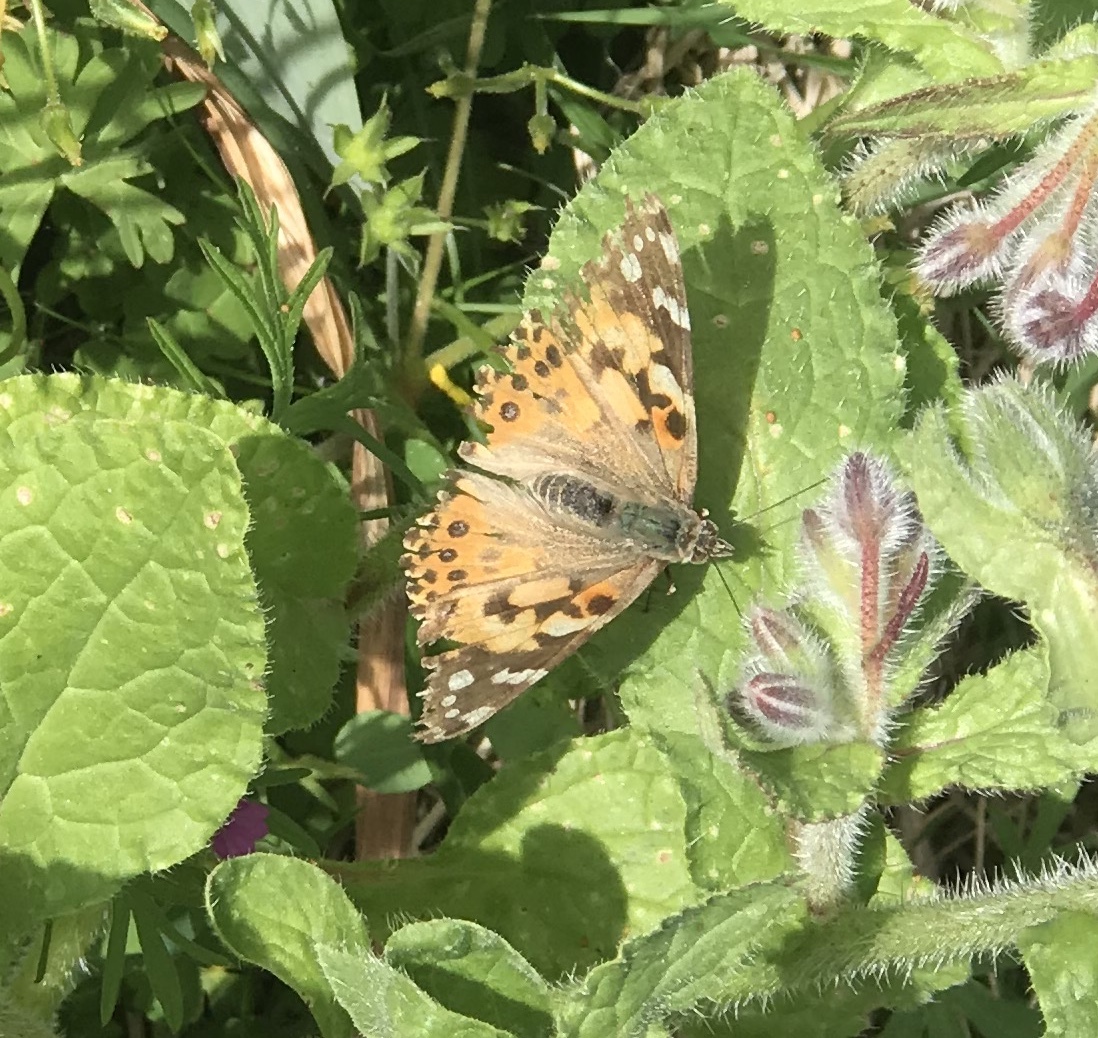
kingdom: Animalia
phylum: Arthropoda
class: Insecta
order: Lepidoptera
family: Nymphalidae
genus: Vanessa
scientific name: Vanessa cardui
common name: Painted lady
